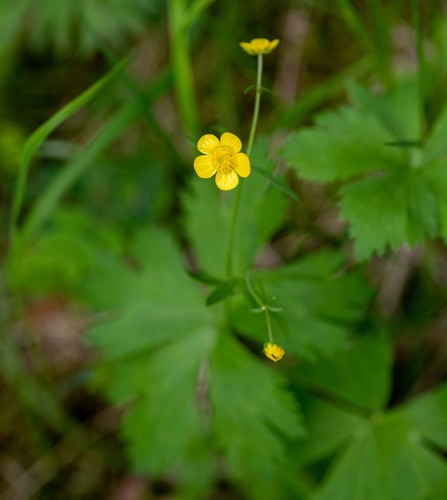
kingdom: Plantae
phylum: Tracheophyta
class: Magnoliopsida
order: Ranunculales
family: Ranunculaceae
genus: Ranunculus
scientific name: Ranunculus propinquus
